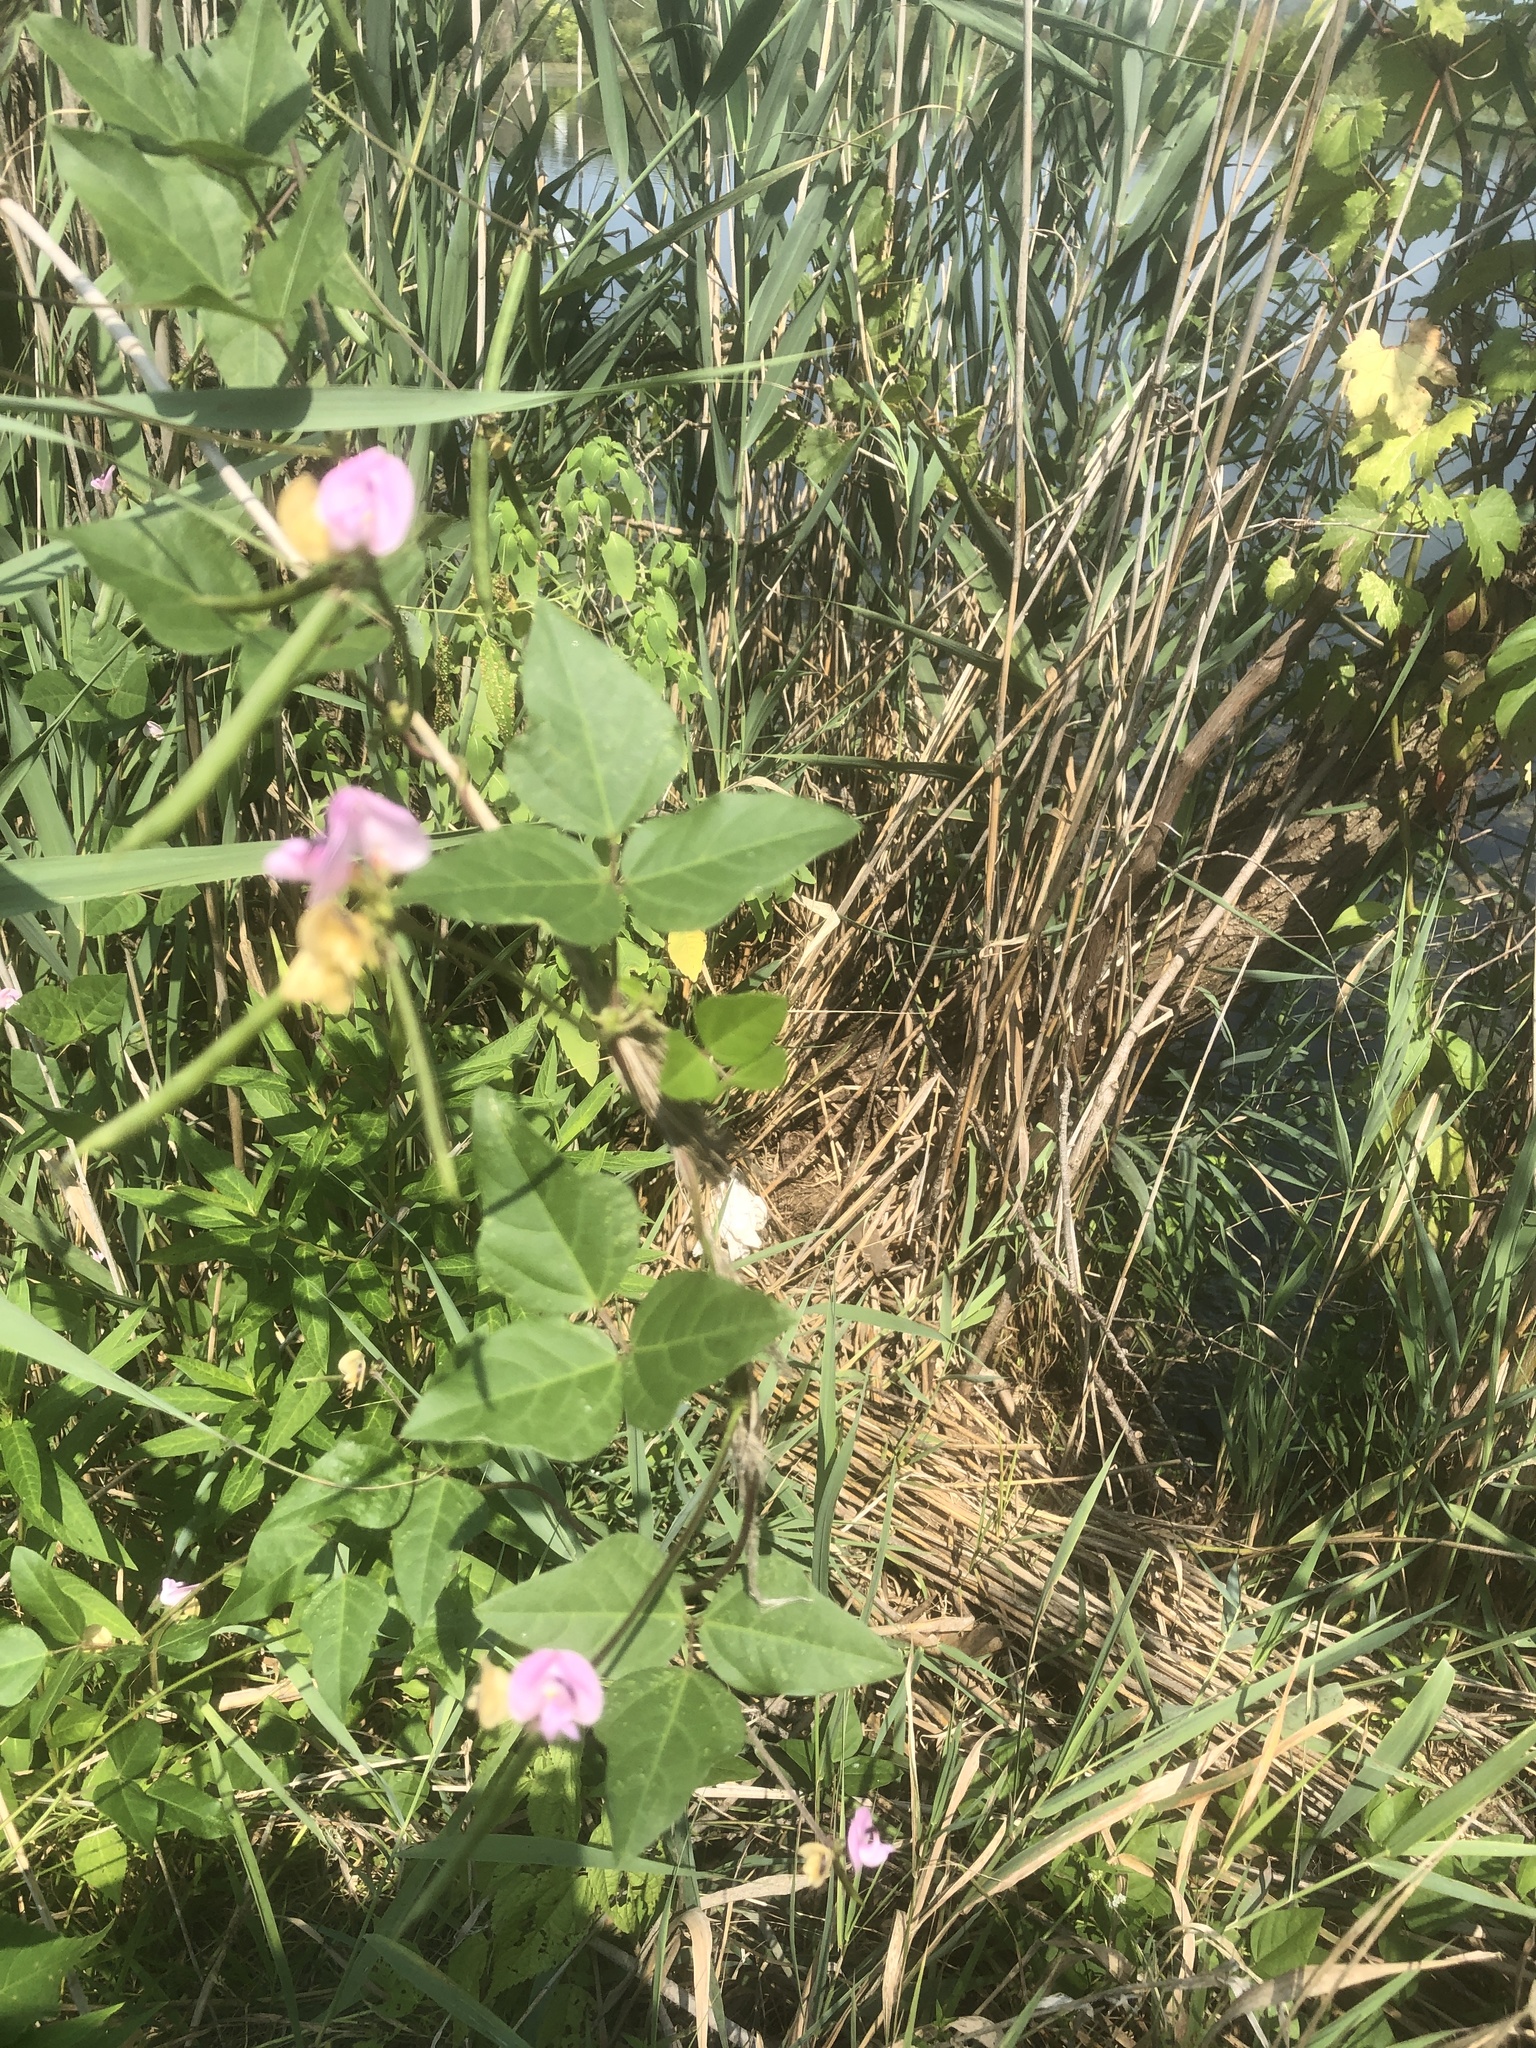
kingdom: Plantae
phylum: Tracheophyta
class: Magnoliopsida
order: Fabales
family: Fabaceae
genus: Strophostyles
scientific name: Strophostyles helvola
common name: Trailing wild bean
